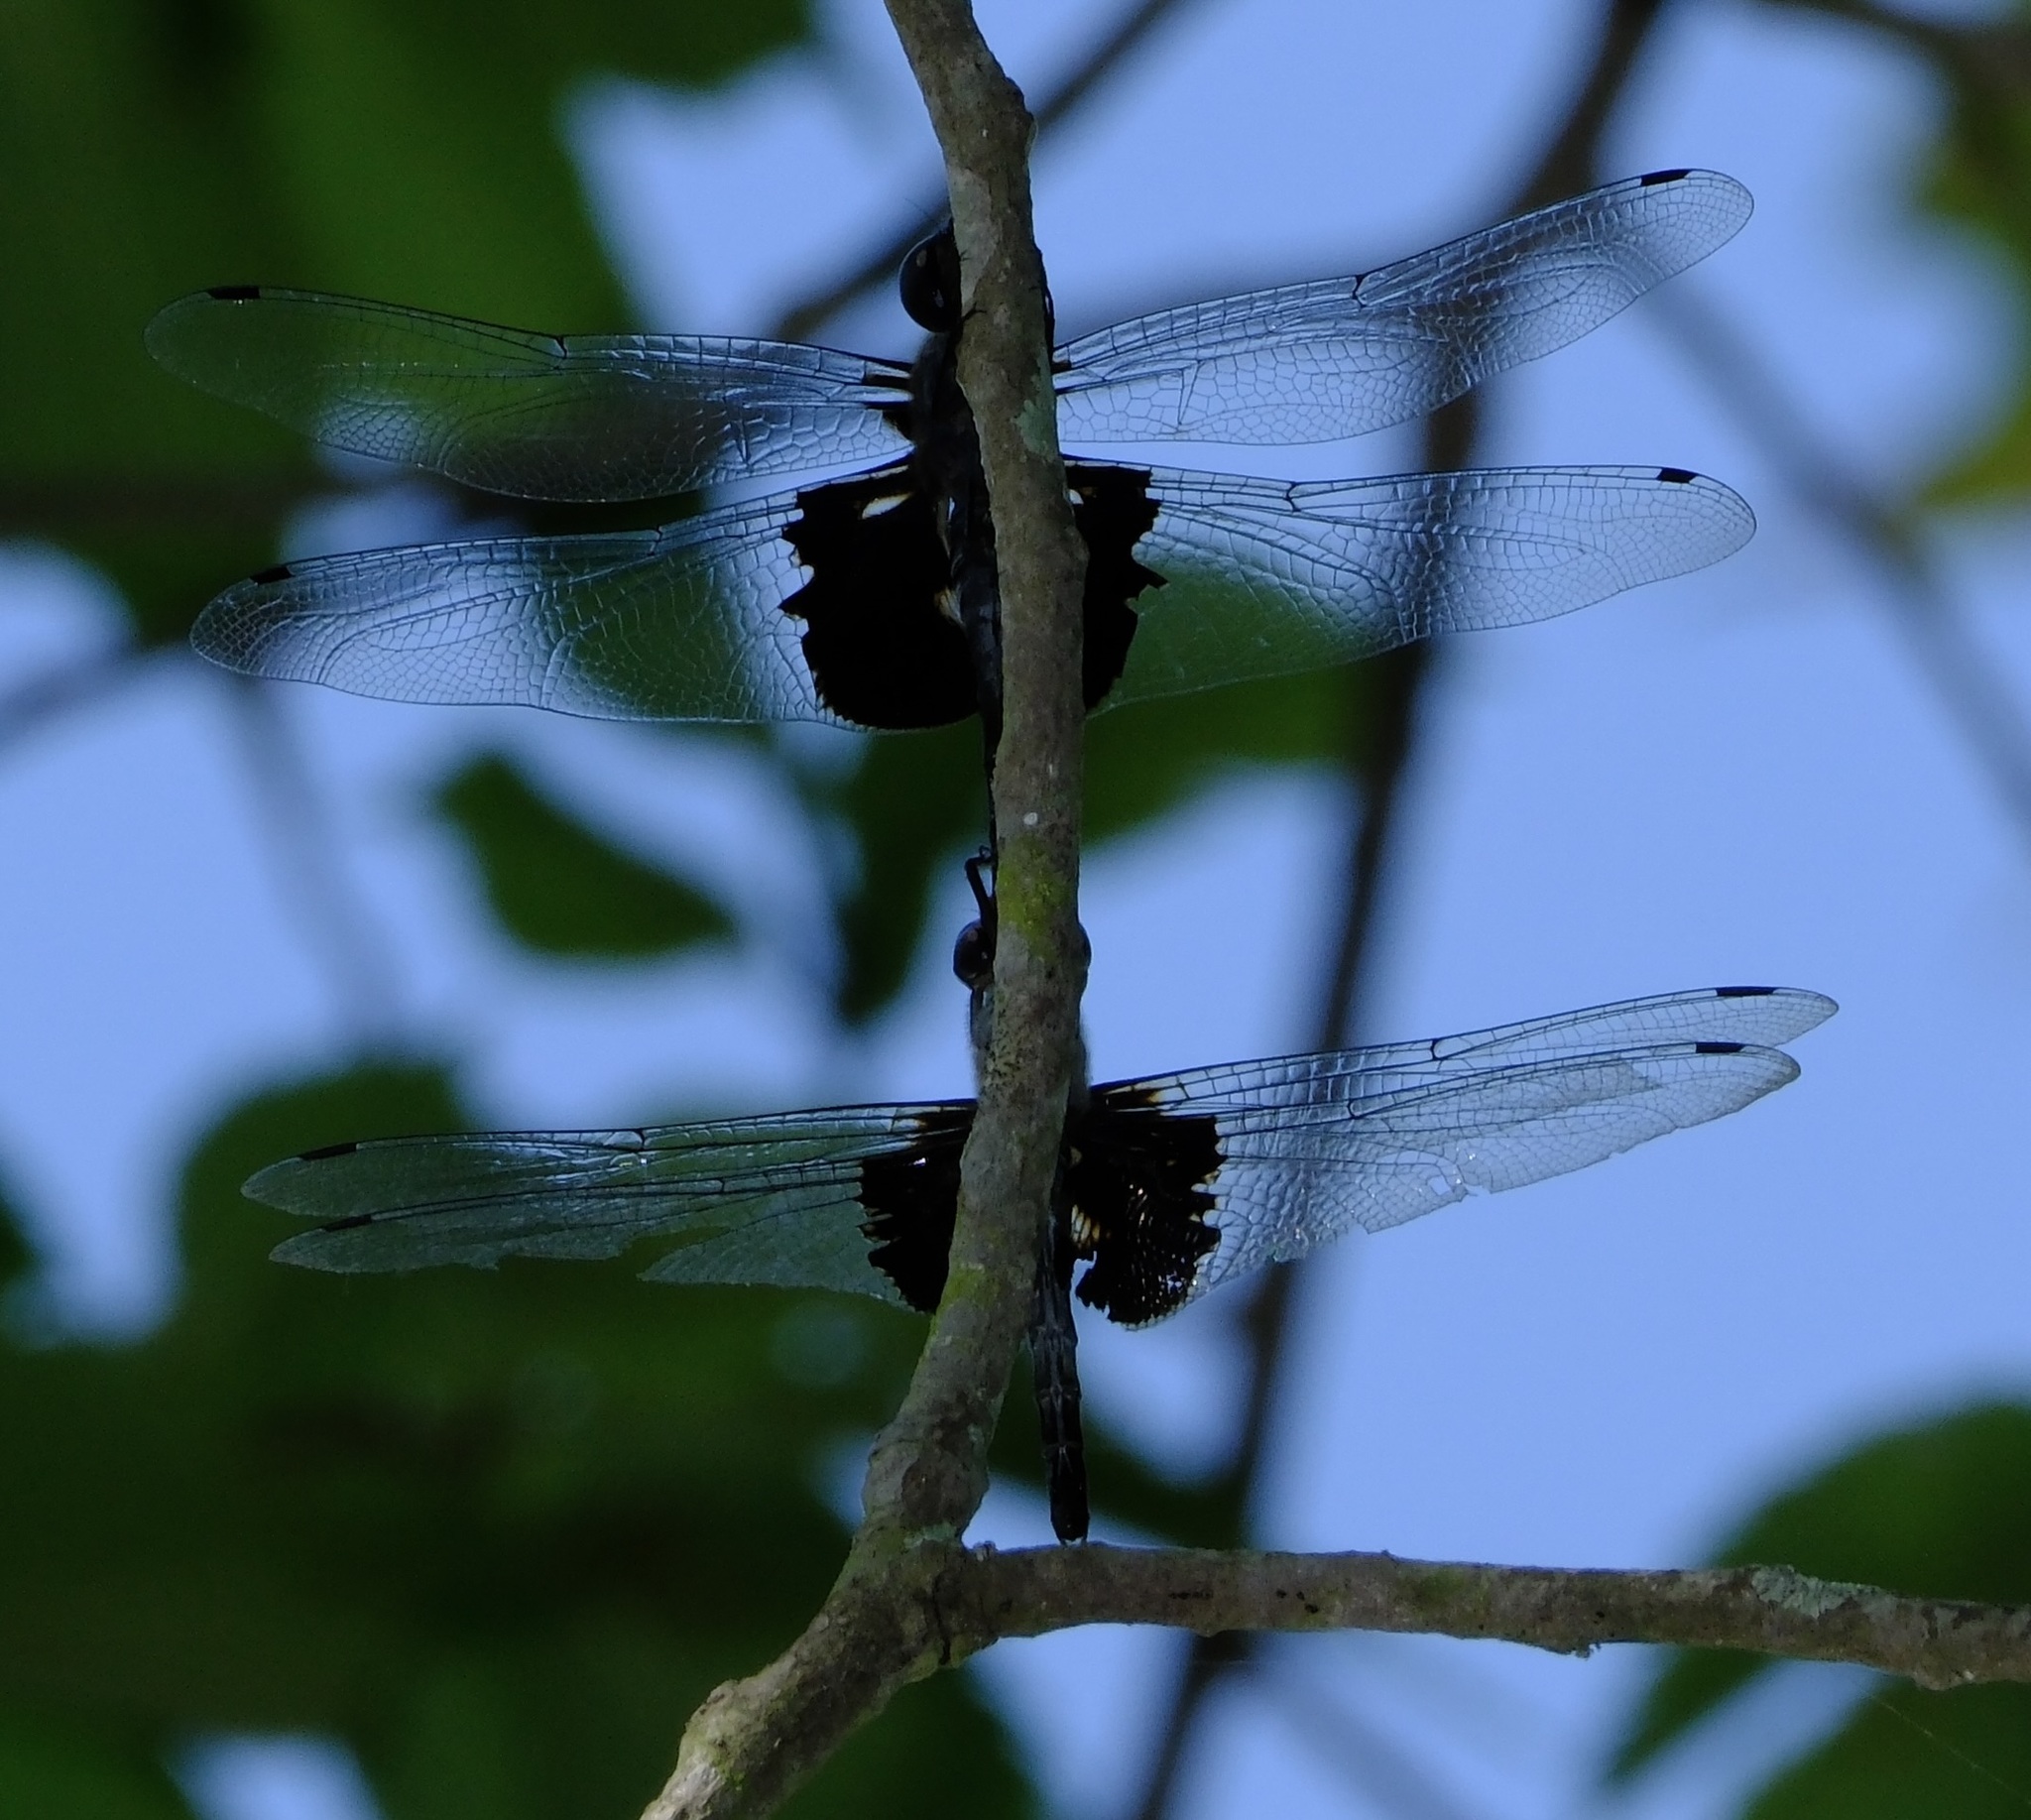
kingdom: Animalia
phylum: Arthropoda
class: Insecta
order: Odonata
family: Libellulidae
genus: Tramea
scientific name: Tramea lacerata
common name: Black saddlebags
